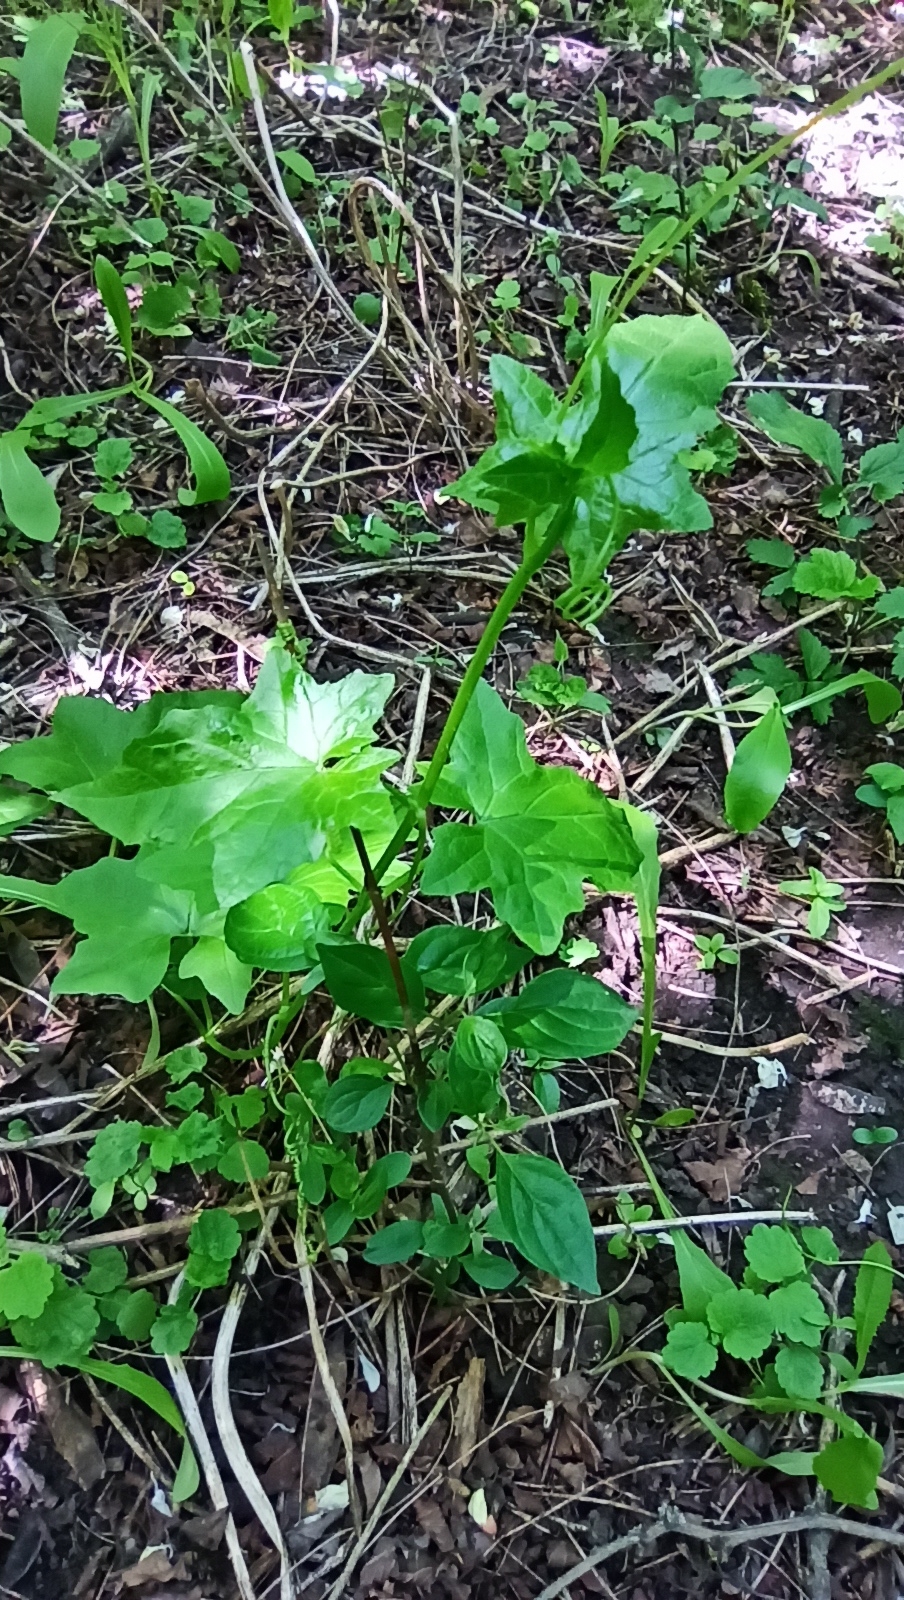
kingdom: Plantae
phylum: Tracheophyta
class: Magnoliopsida
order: Cucurbitales
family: Cucurbitaceae
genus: Bryonia
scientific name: Bryonia alba
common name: White bryony
